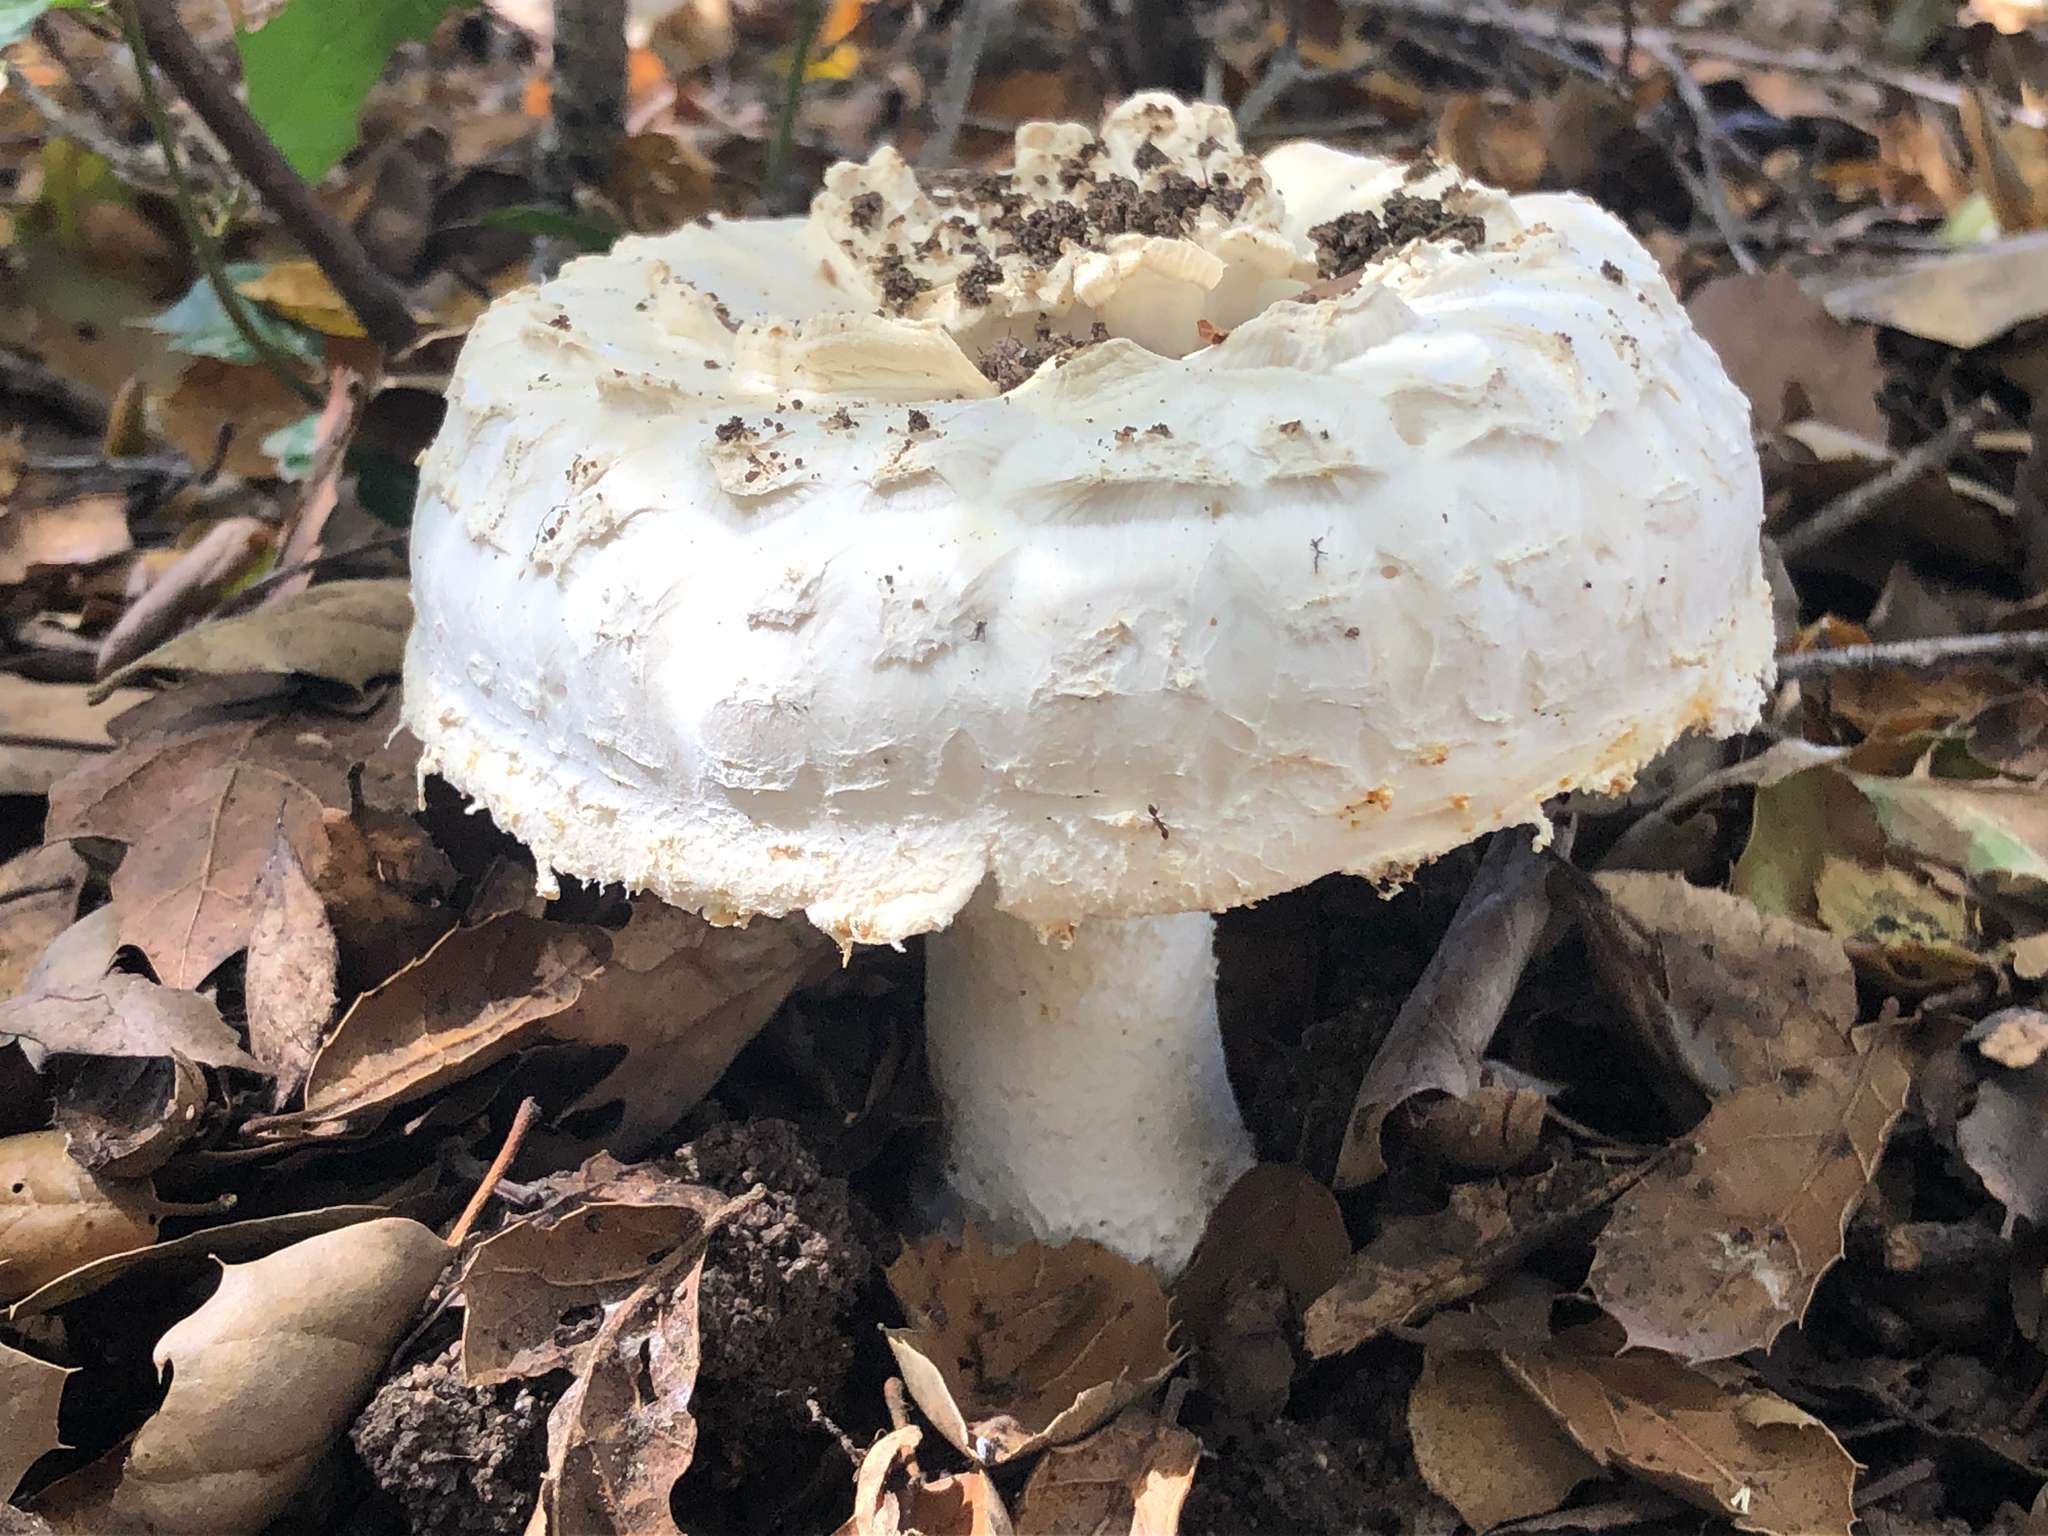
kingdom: Fungi
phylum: Basidiomycota
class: Agaricomycetes
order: Agaricales
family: Amanitaceae
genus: Amanita
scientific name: Amanita magniverrucata
